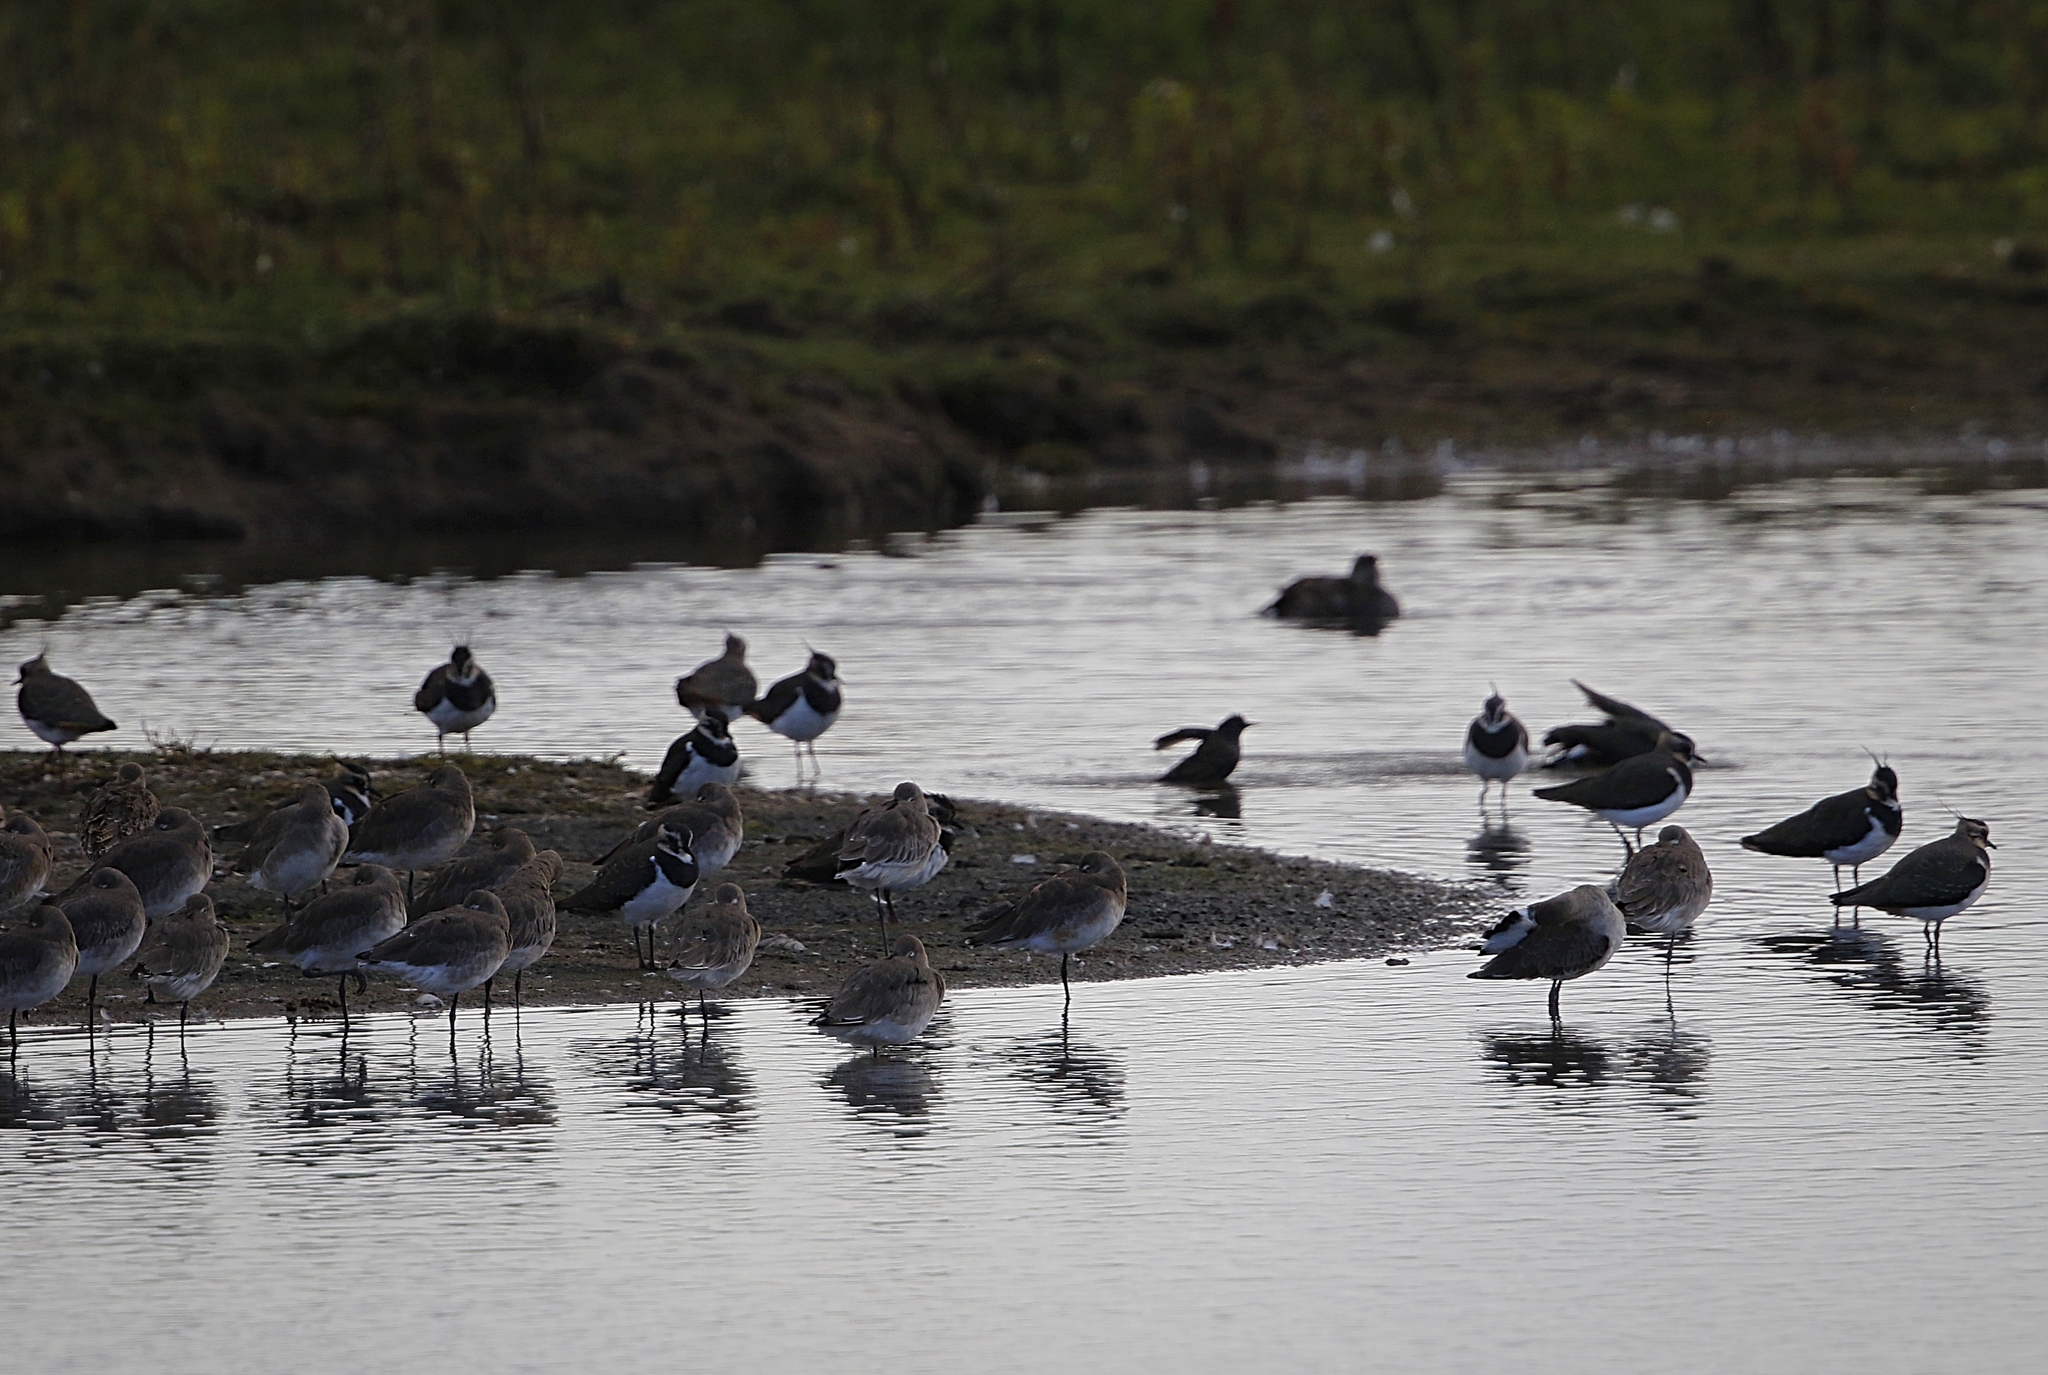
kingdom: Animalia
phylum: Chordata
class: Aves
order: Charadriiformes
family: Charadriidae
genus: Vanellus
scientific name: Vanellus vanellus
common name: Northern lapwing
